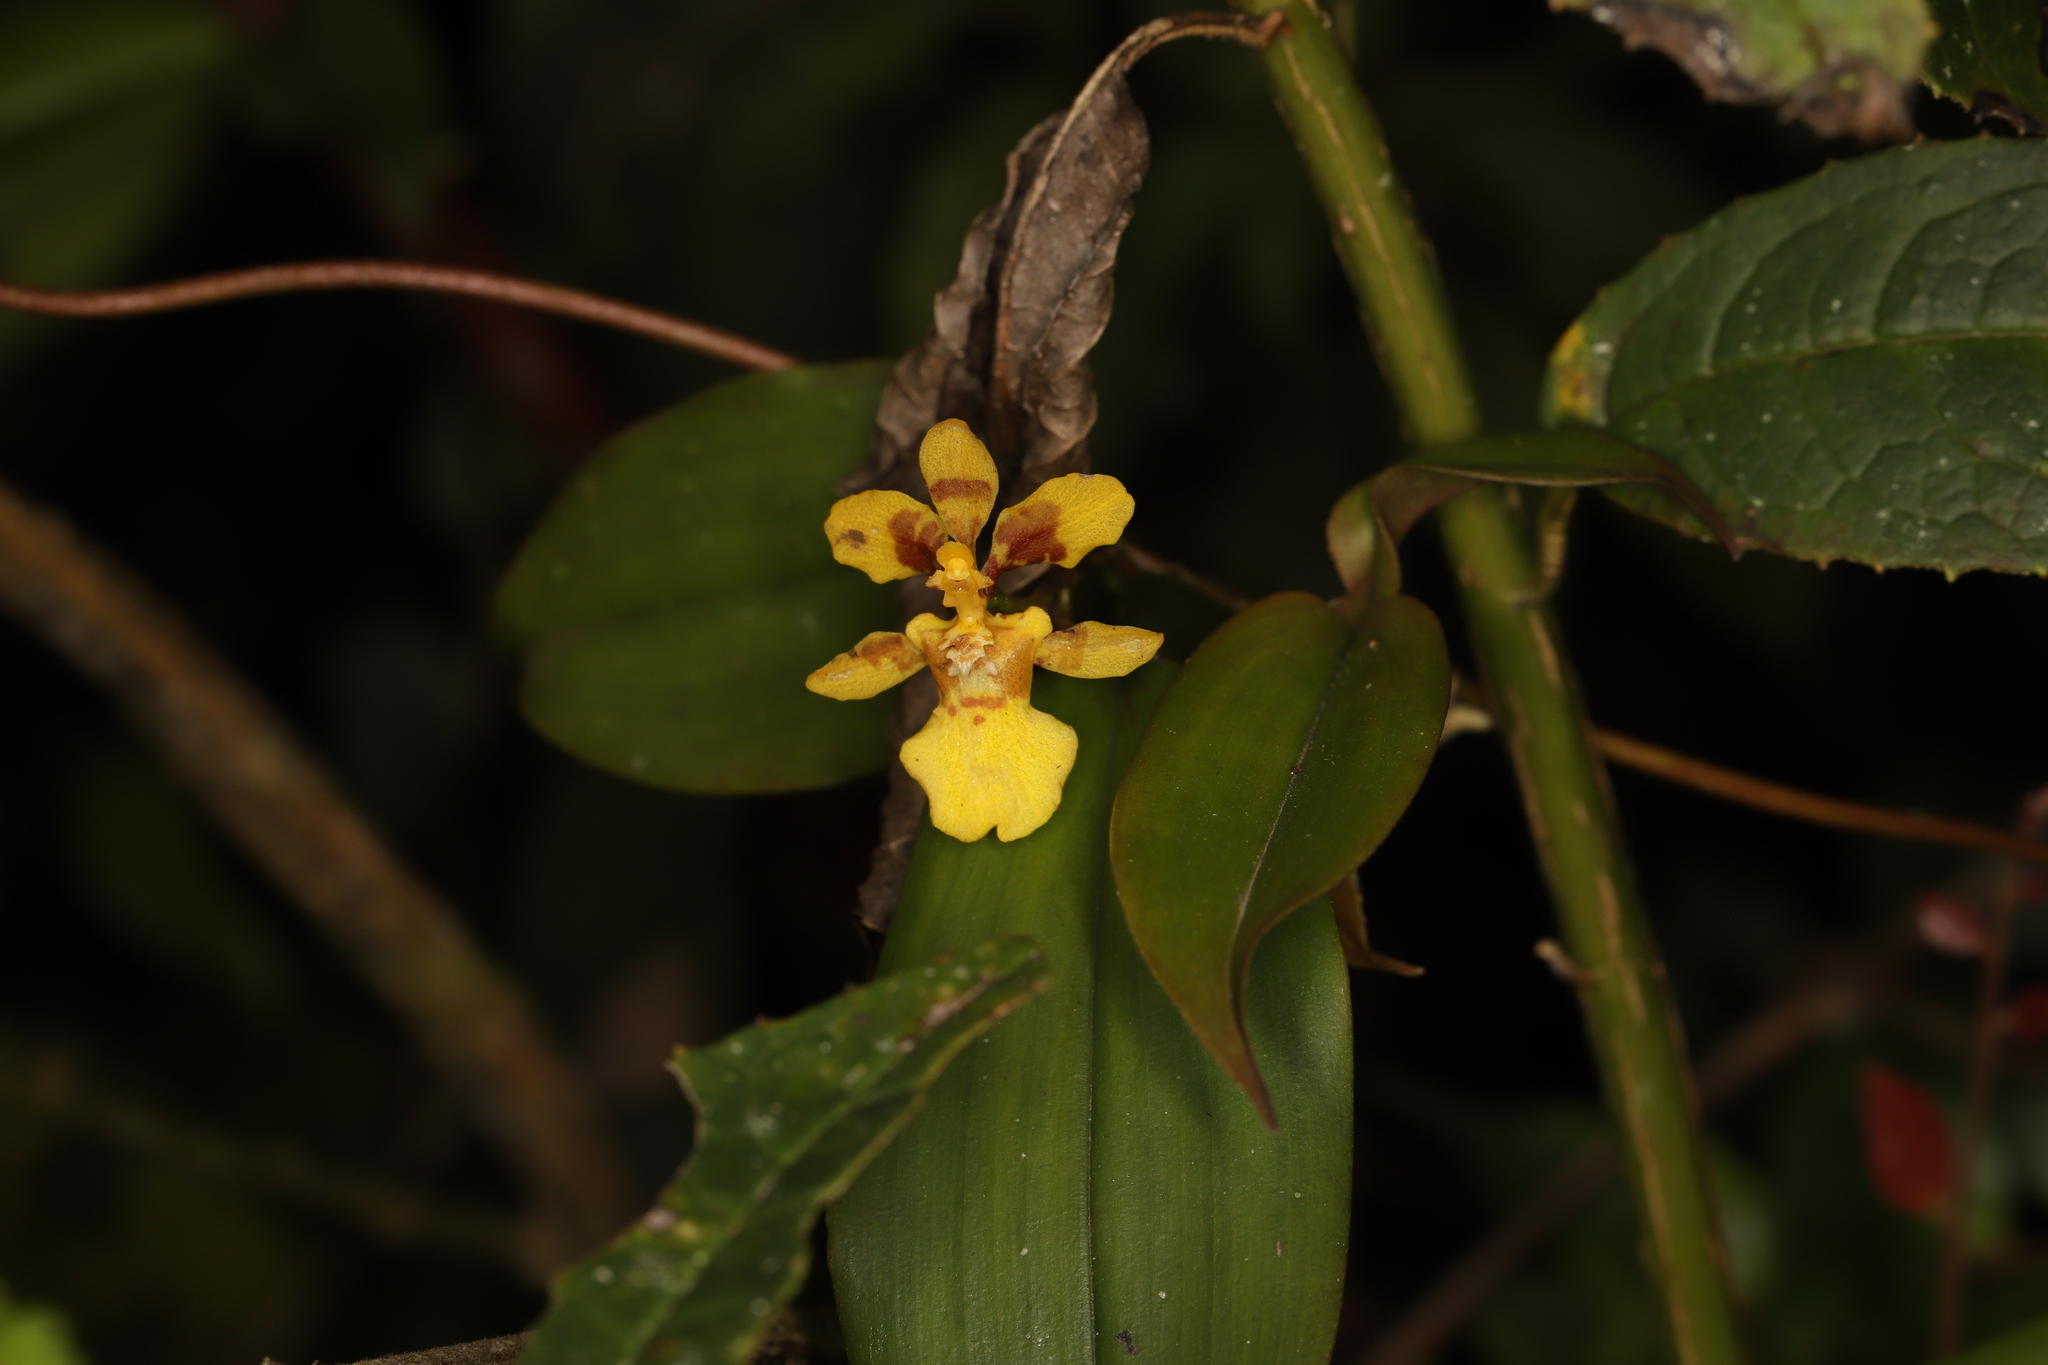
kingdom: Plantae
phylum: Tracheophyta
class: Liliopsida
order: Asparagales
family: Orchidaceae
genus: Otoglossum
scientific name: Otoglossum globuliferum
